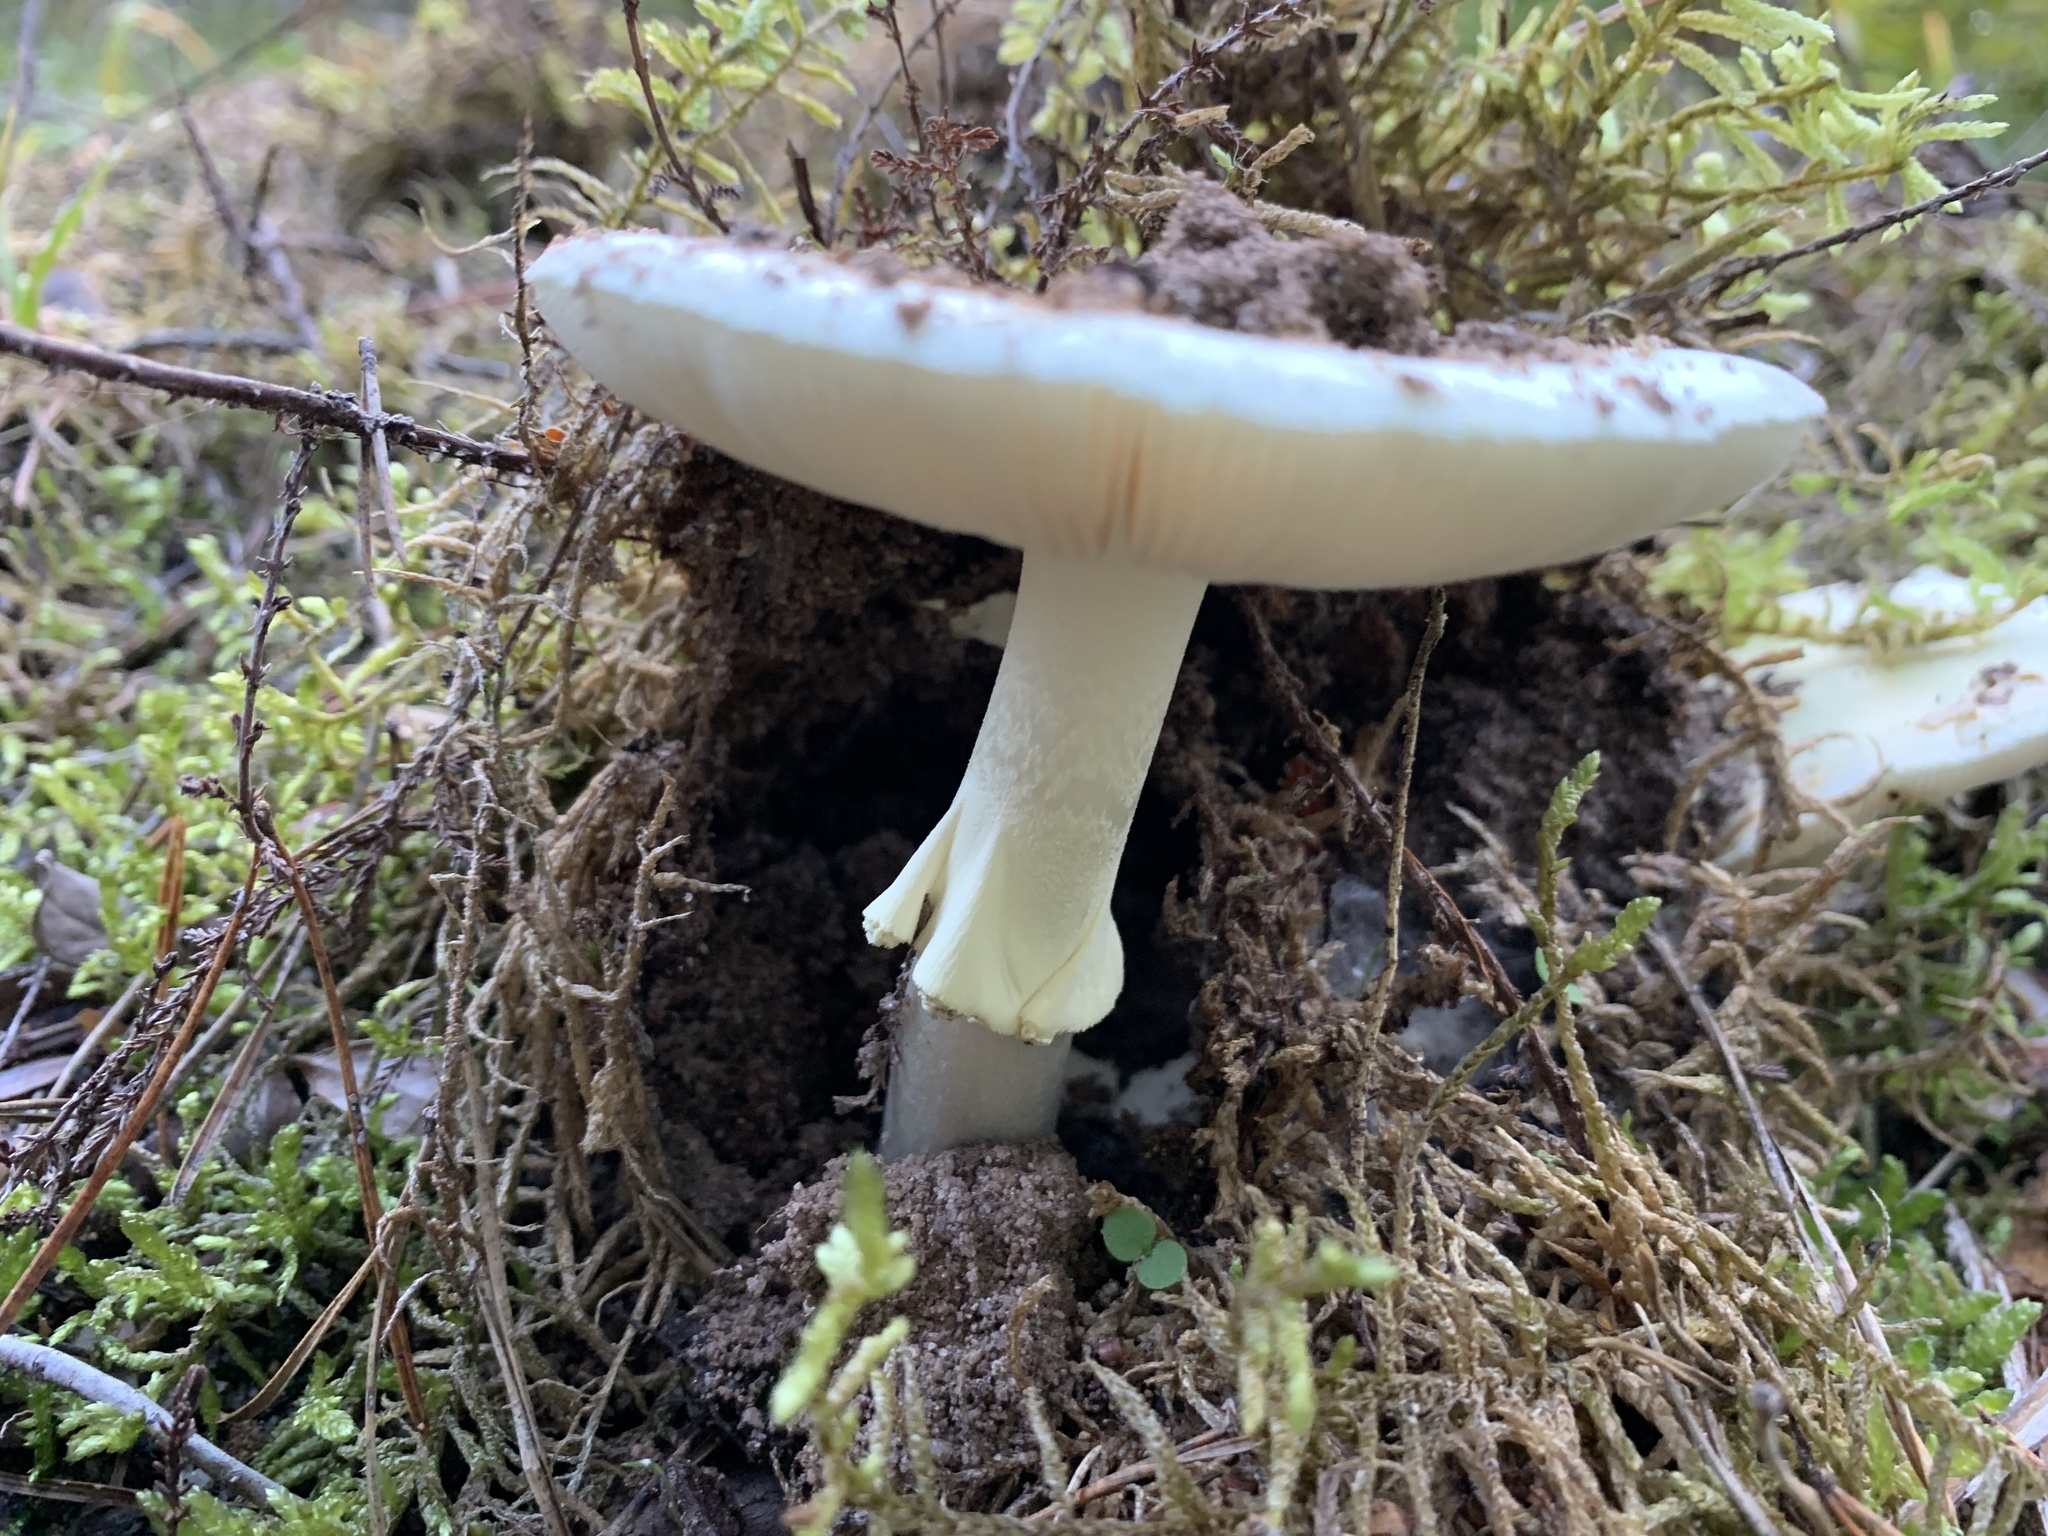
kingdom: Fungi
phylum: Basidiomycota
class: Agaricomycetes
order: Agaricales
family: Amanitaceae
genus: Amanita
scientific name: Amanita citrina
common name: False death-cap
